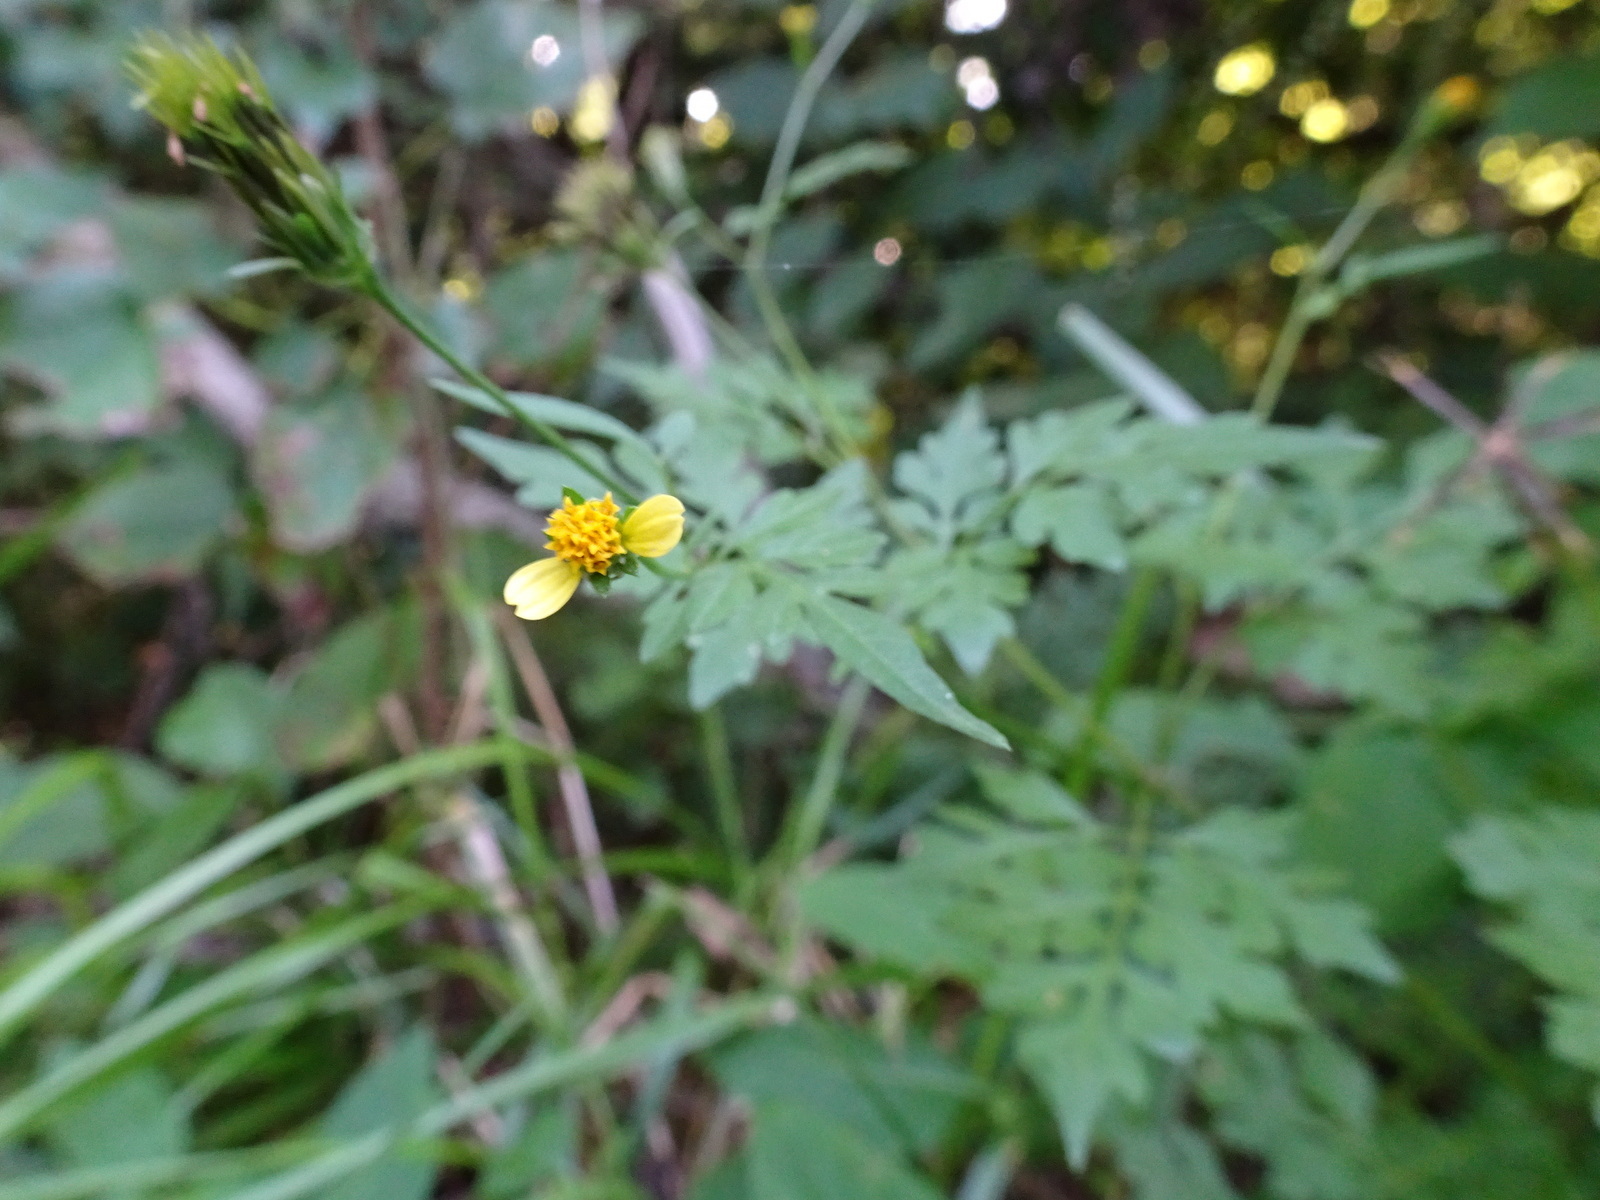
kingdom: Plantae
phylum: Tracheophyta
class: Magnoliopsida
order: Asterales
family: Asteraceae
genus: Bidens
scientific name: Bidens bipinnata
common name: Spanish-needles
